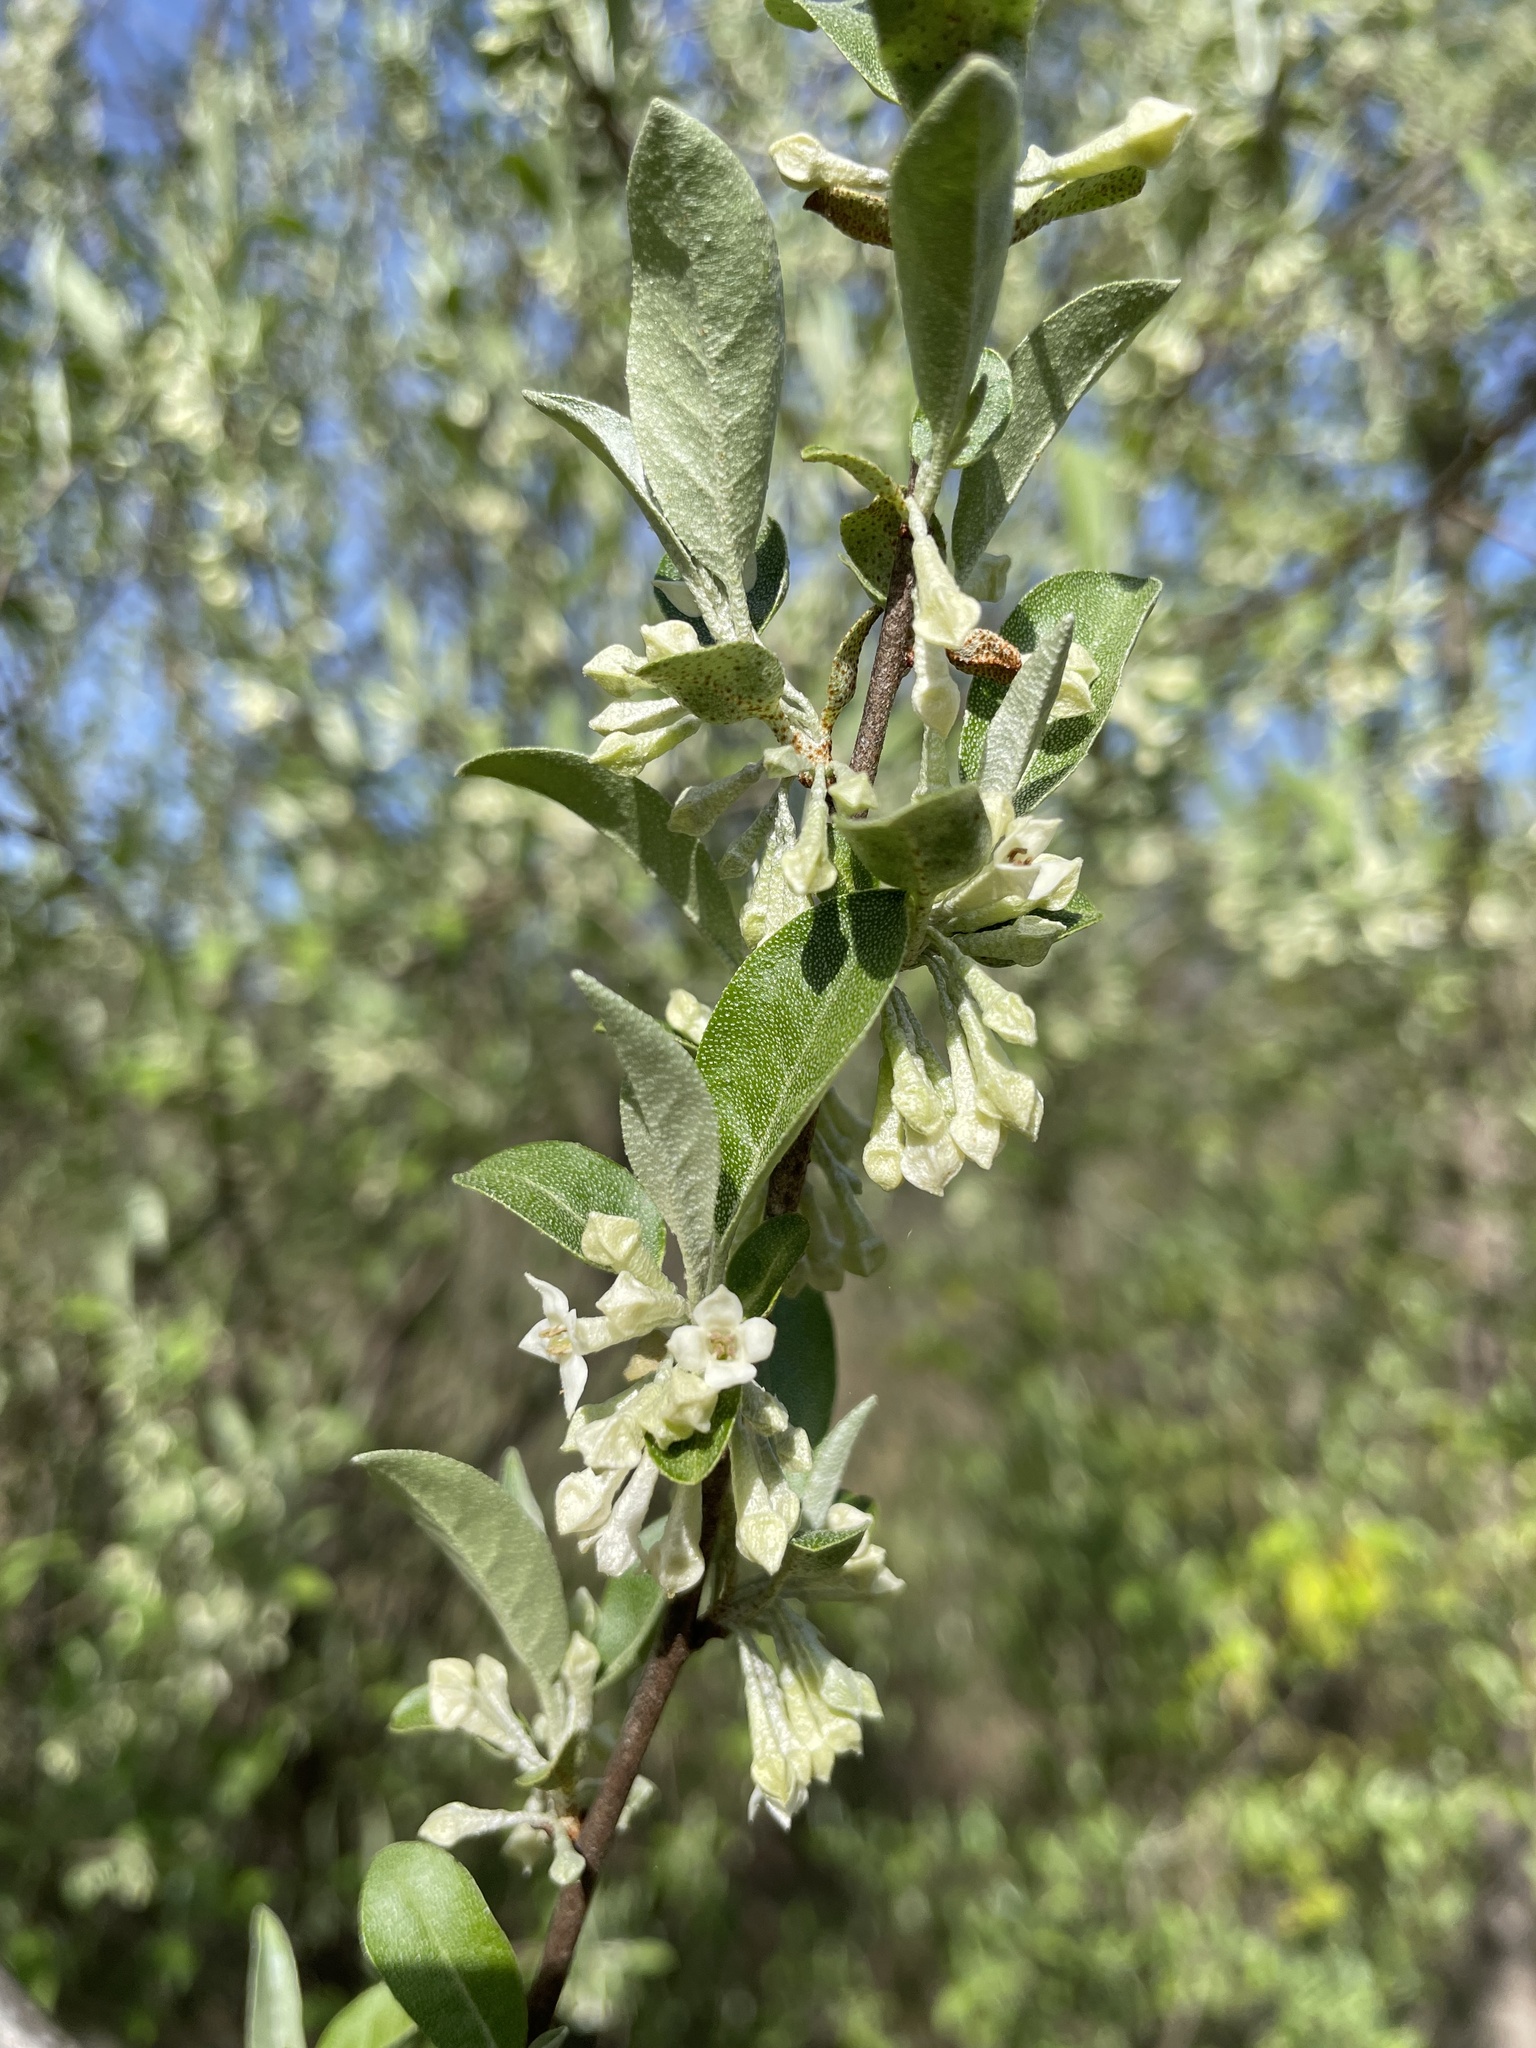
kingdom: Plantae
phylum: Tracheophyta
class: Magnoliopsida
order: Rosales
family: Elaeagnaceae
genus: Elaeagnus
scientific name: Elaeagnus umbellata
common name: Autumn olive
